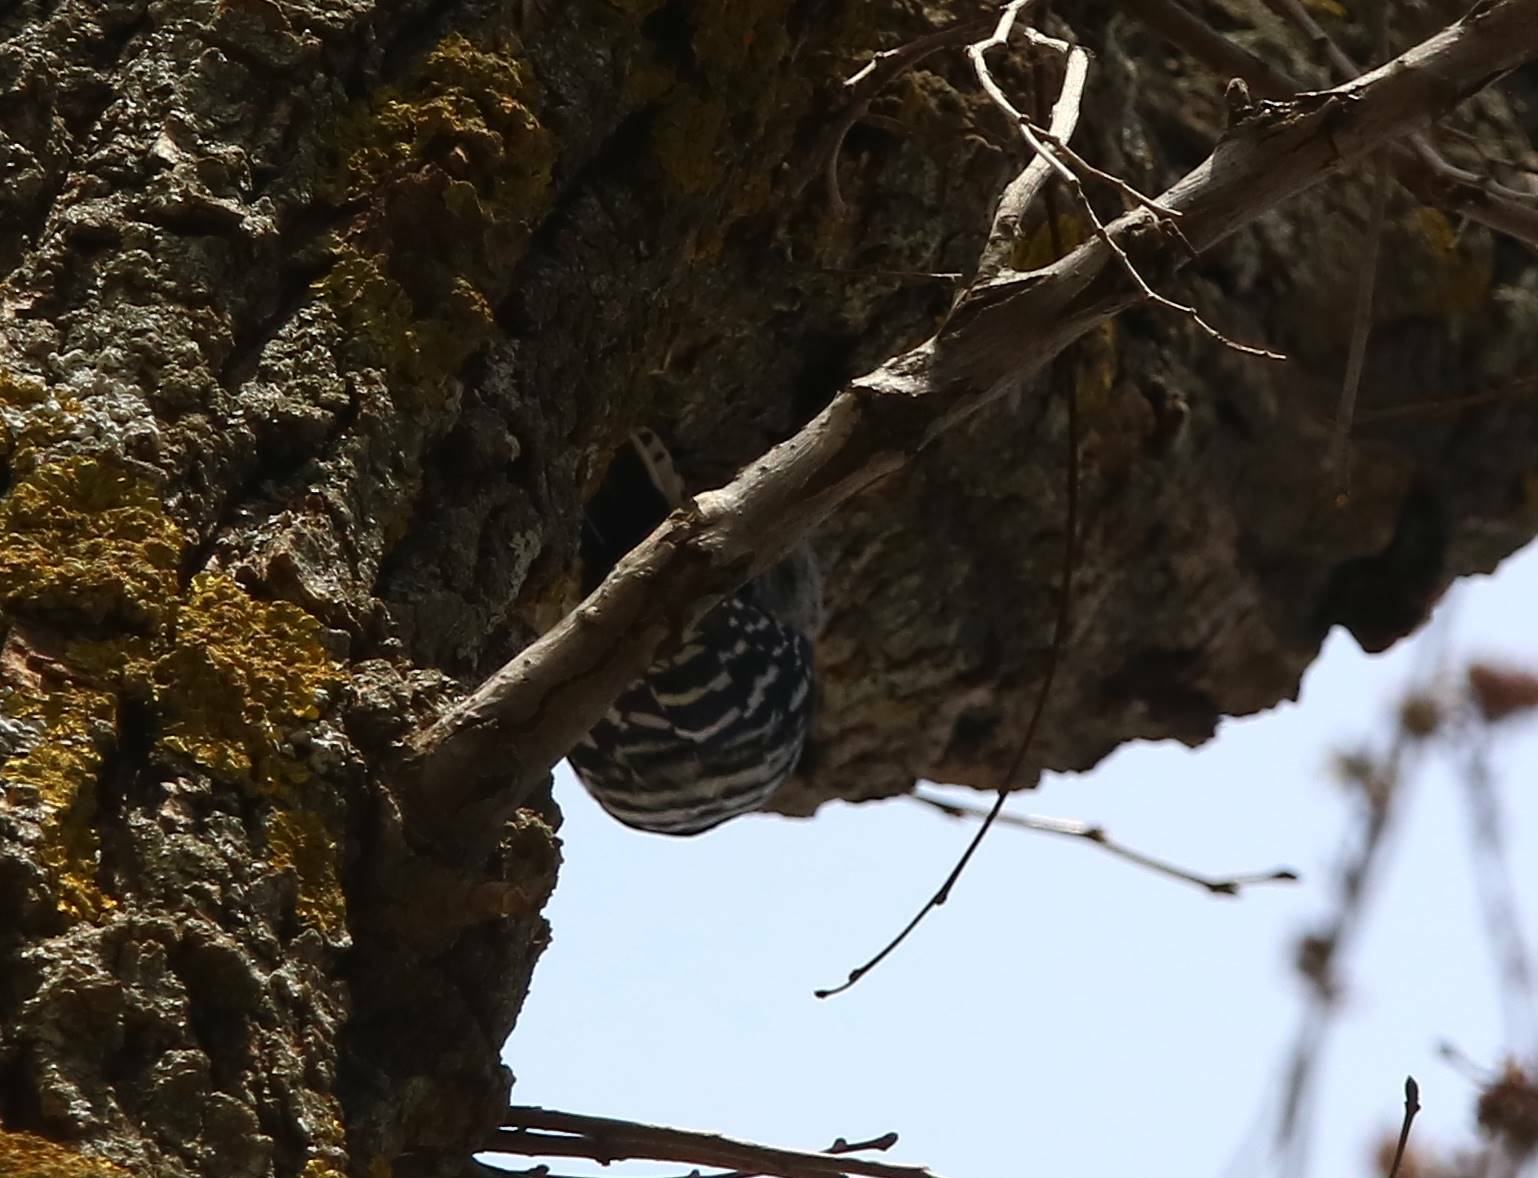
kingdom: Animalia
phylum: Chordata
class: Aves
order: Piciformes
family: Picidae
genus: Dryobates
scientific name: Dryobates minor
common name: Lesser spotted woodpecker
